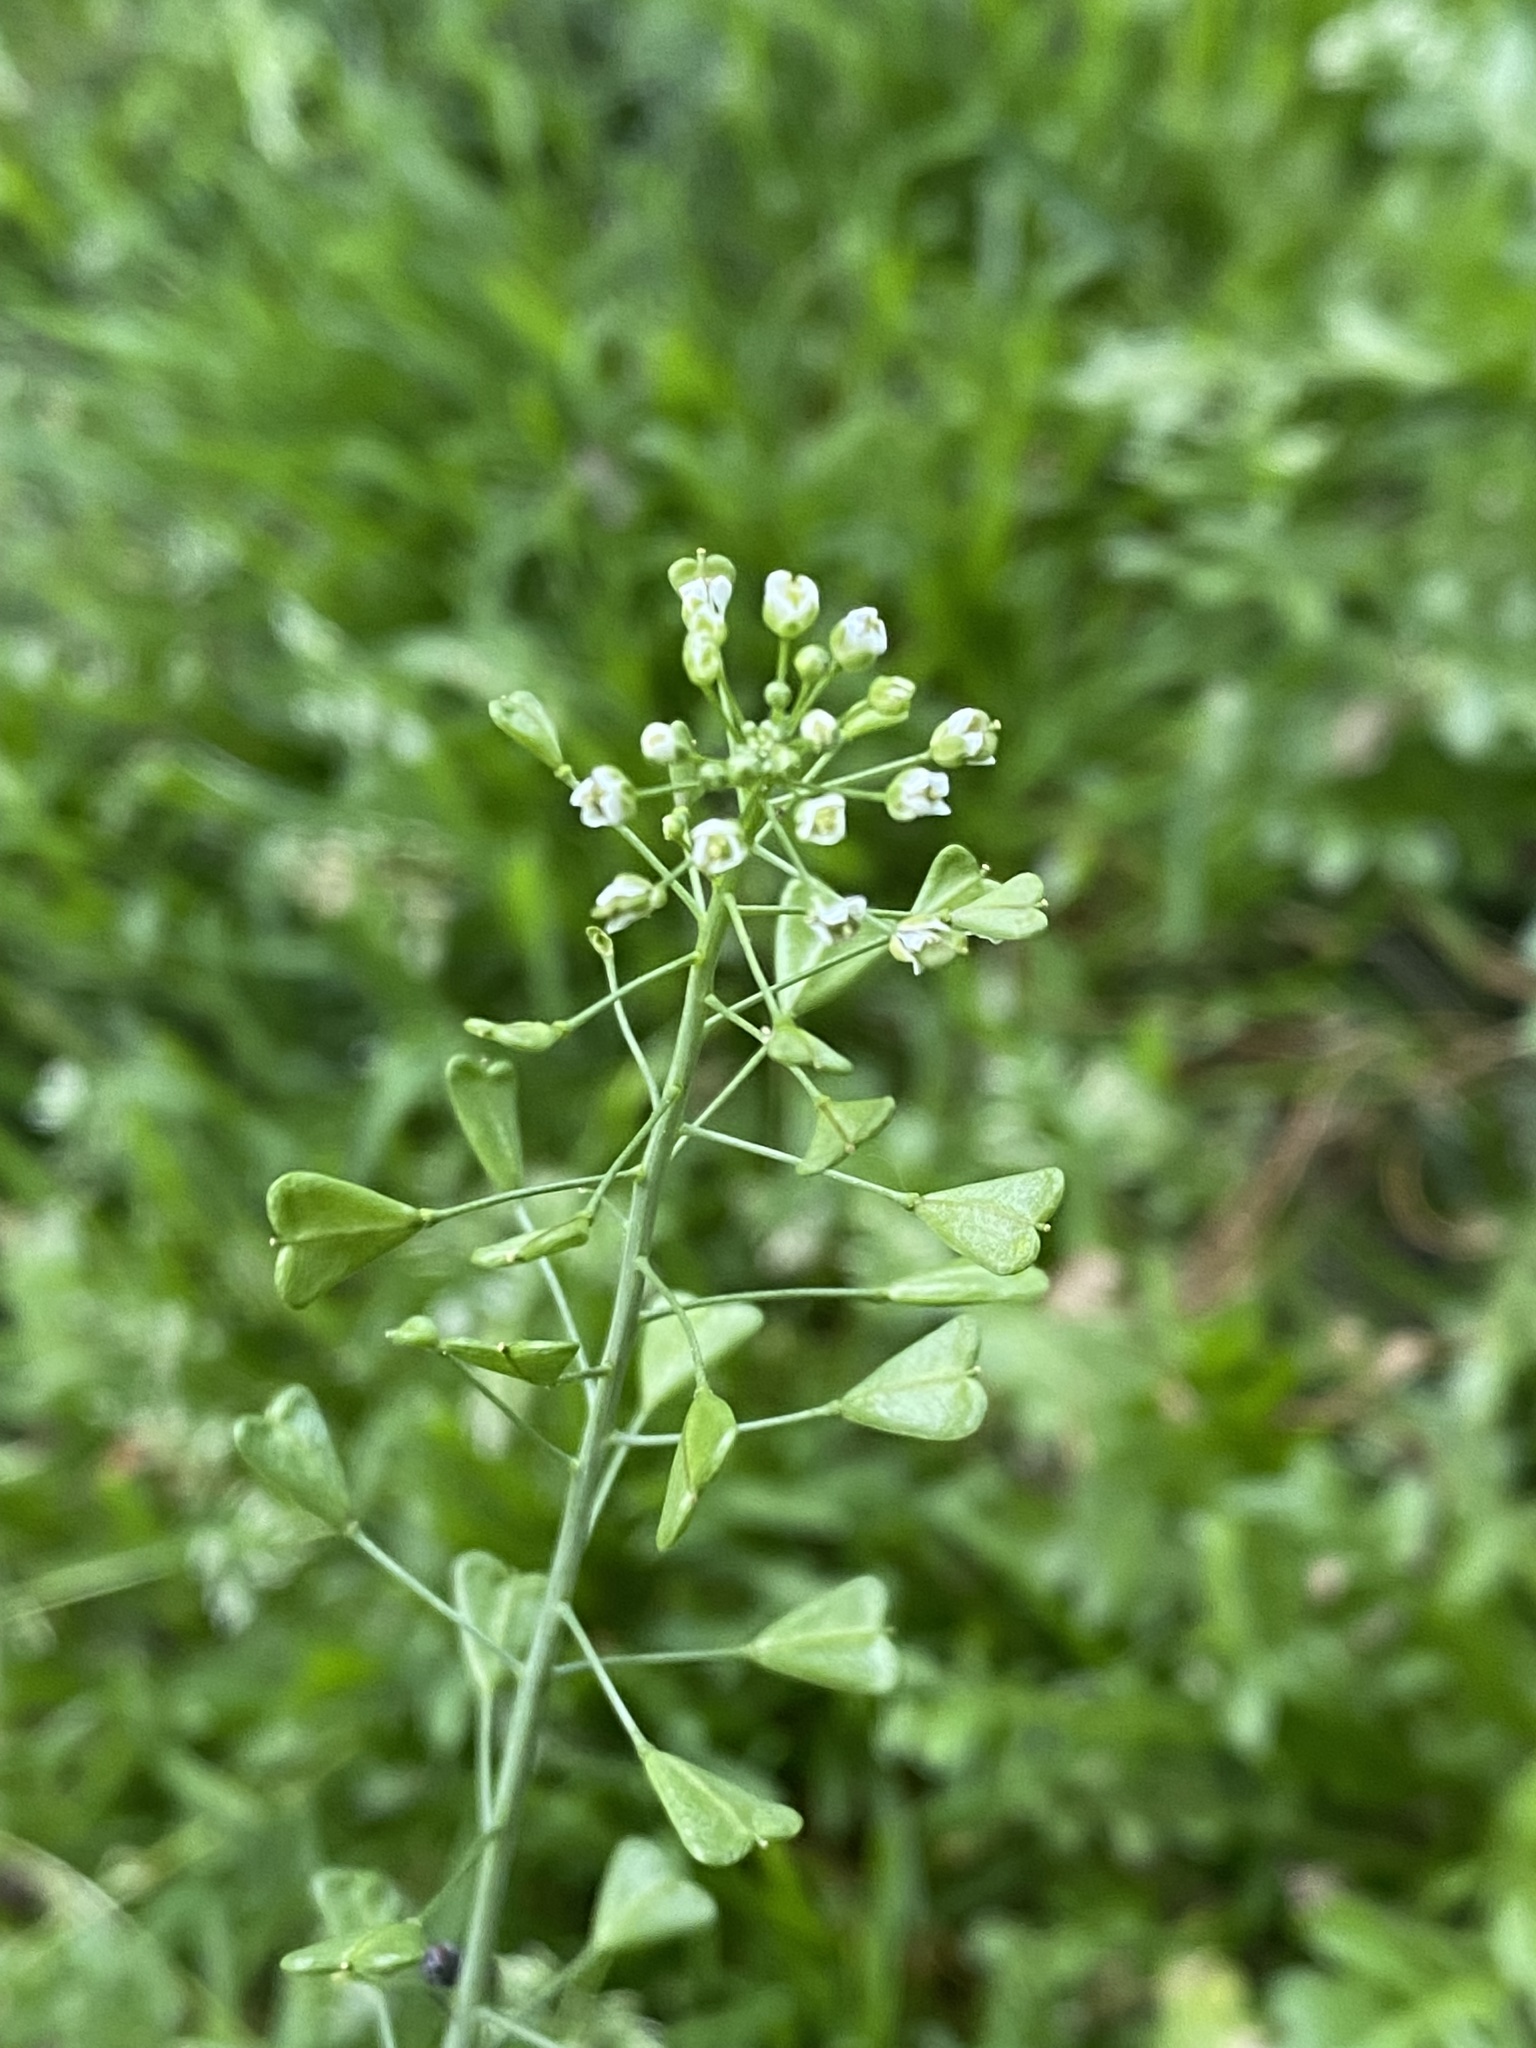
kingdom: Plantae
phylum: Tracheophyta
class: Magnoliopsida
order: Brassicales
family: Brassicaceae
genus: Capsella
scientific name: Capsella bursa-pastoris
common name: Shepherd's purse
